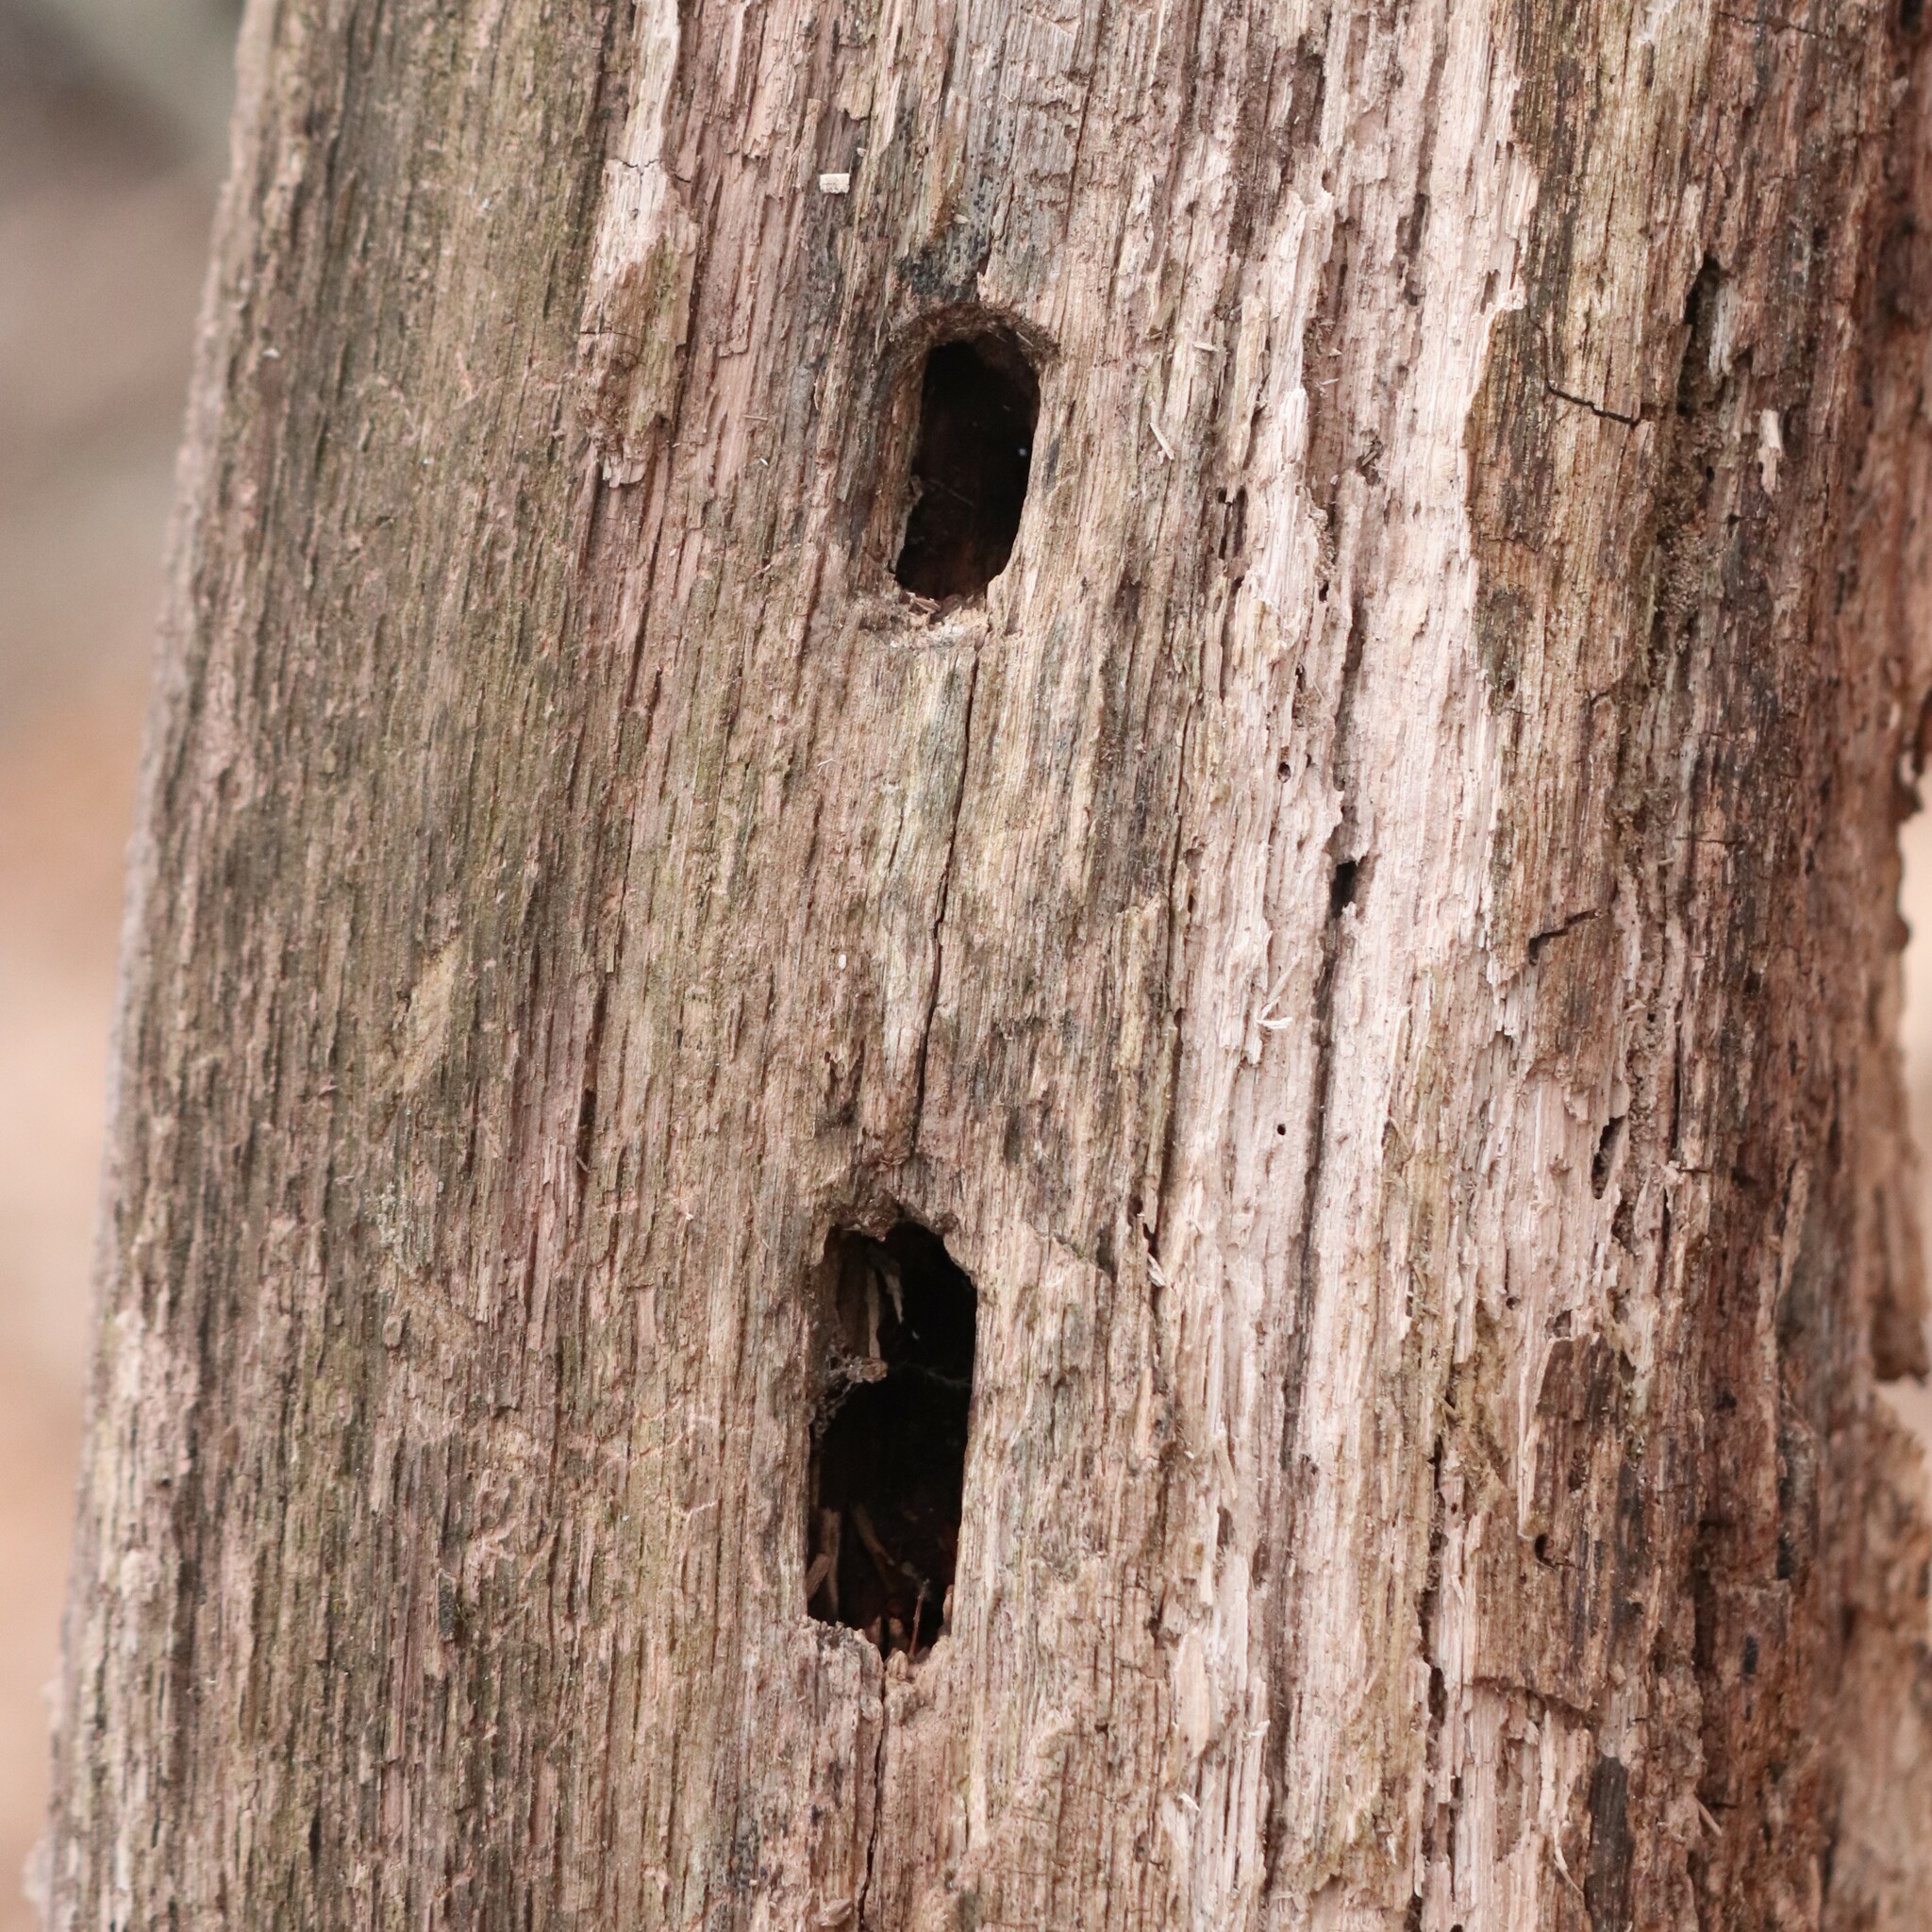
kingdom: Animalia
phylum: Chordata
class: Aves
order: Piciformes
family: Picidae
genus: Dryocopus
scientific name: Dryocopus pileatus
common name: Pileated woodpecker
